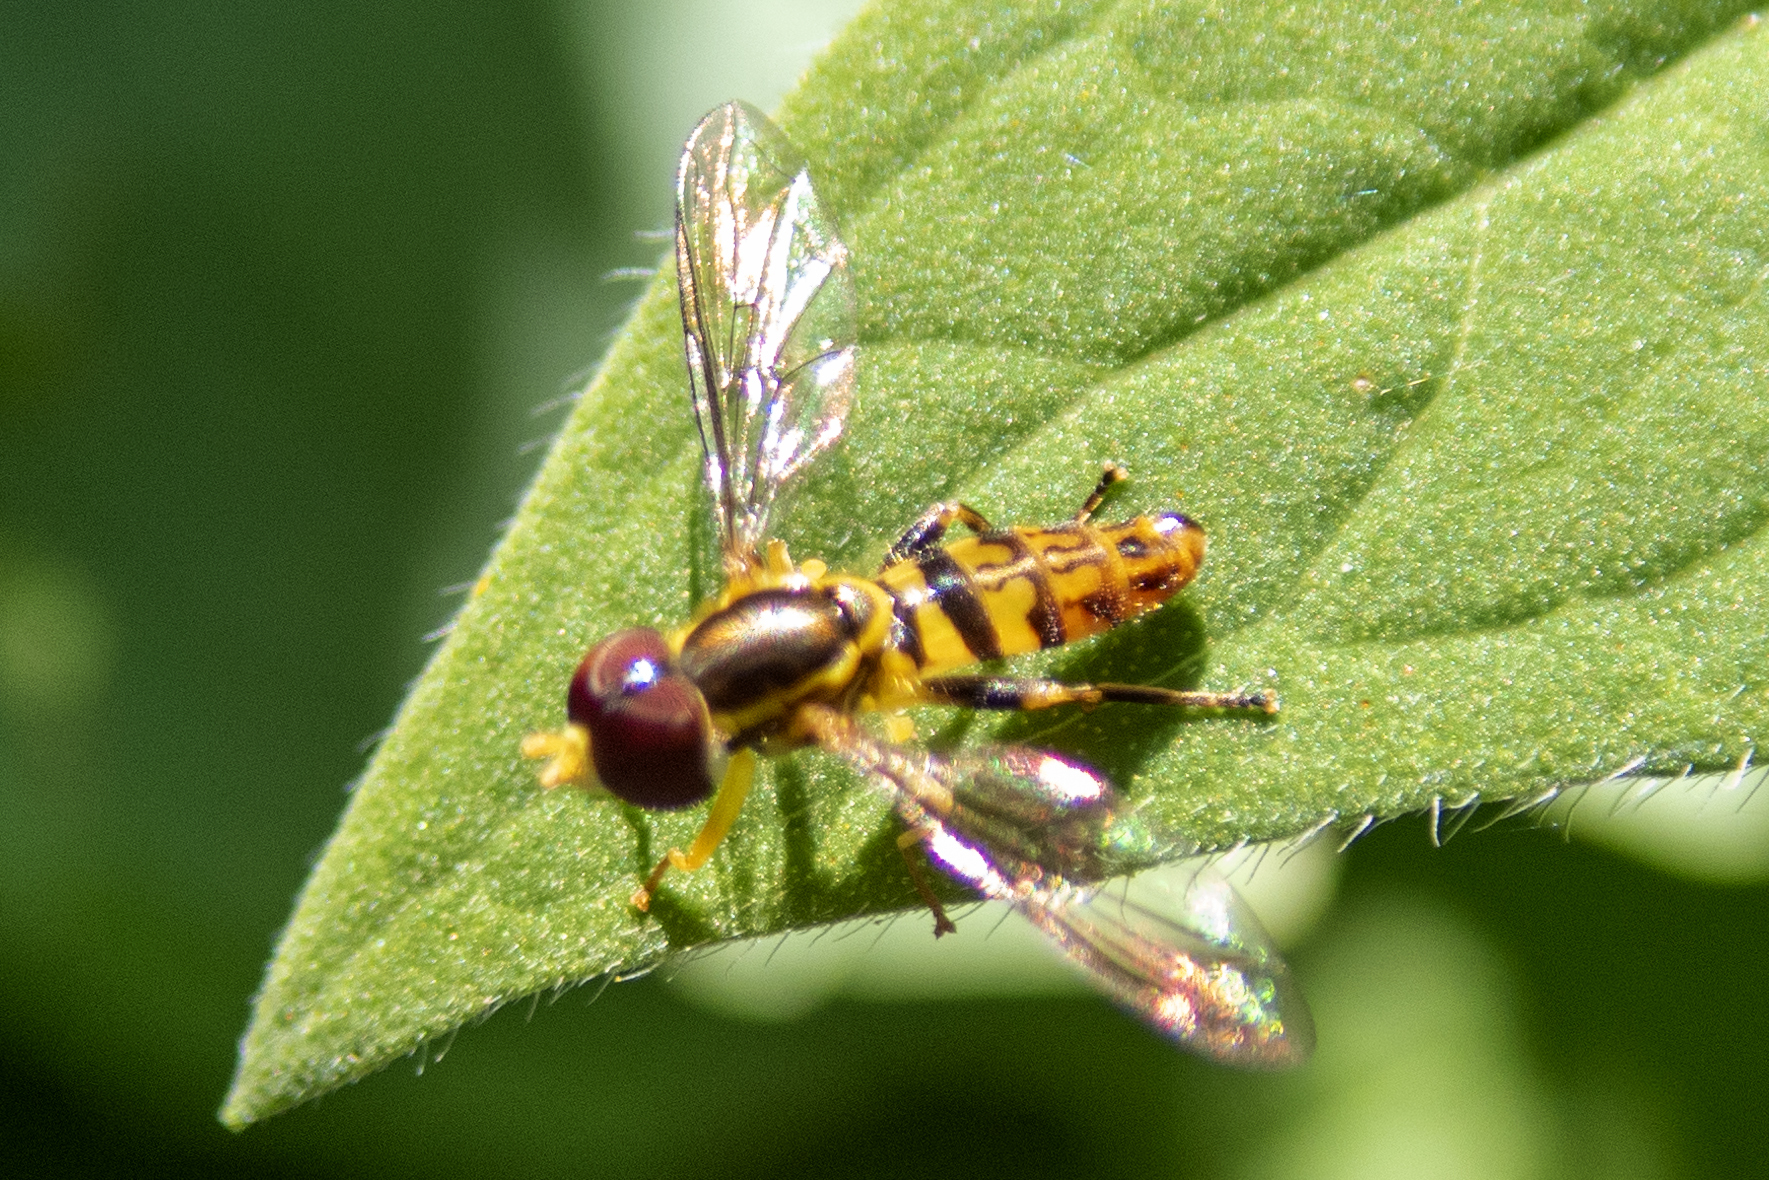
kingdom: Animalia
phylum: Arthropoda
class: Insecta
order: Diptera
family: Syrphidae
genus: Toxomerus
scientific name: Toxomerus geminatus
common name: Eastern calligrapher
